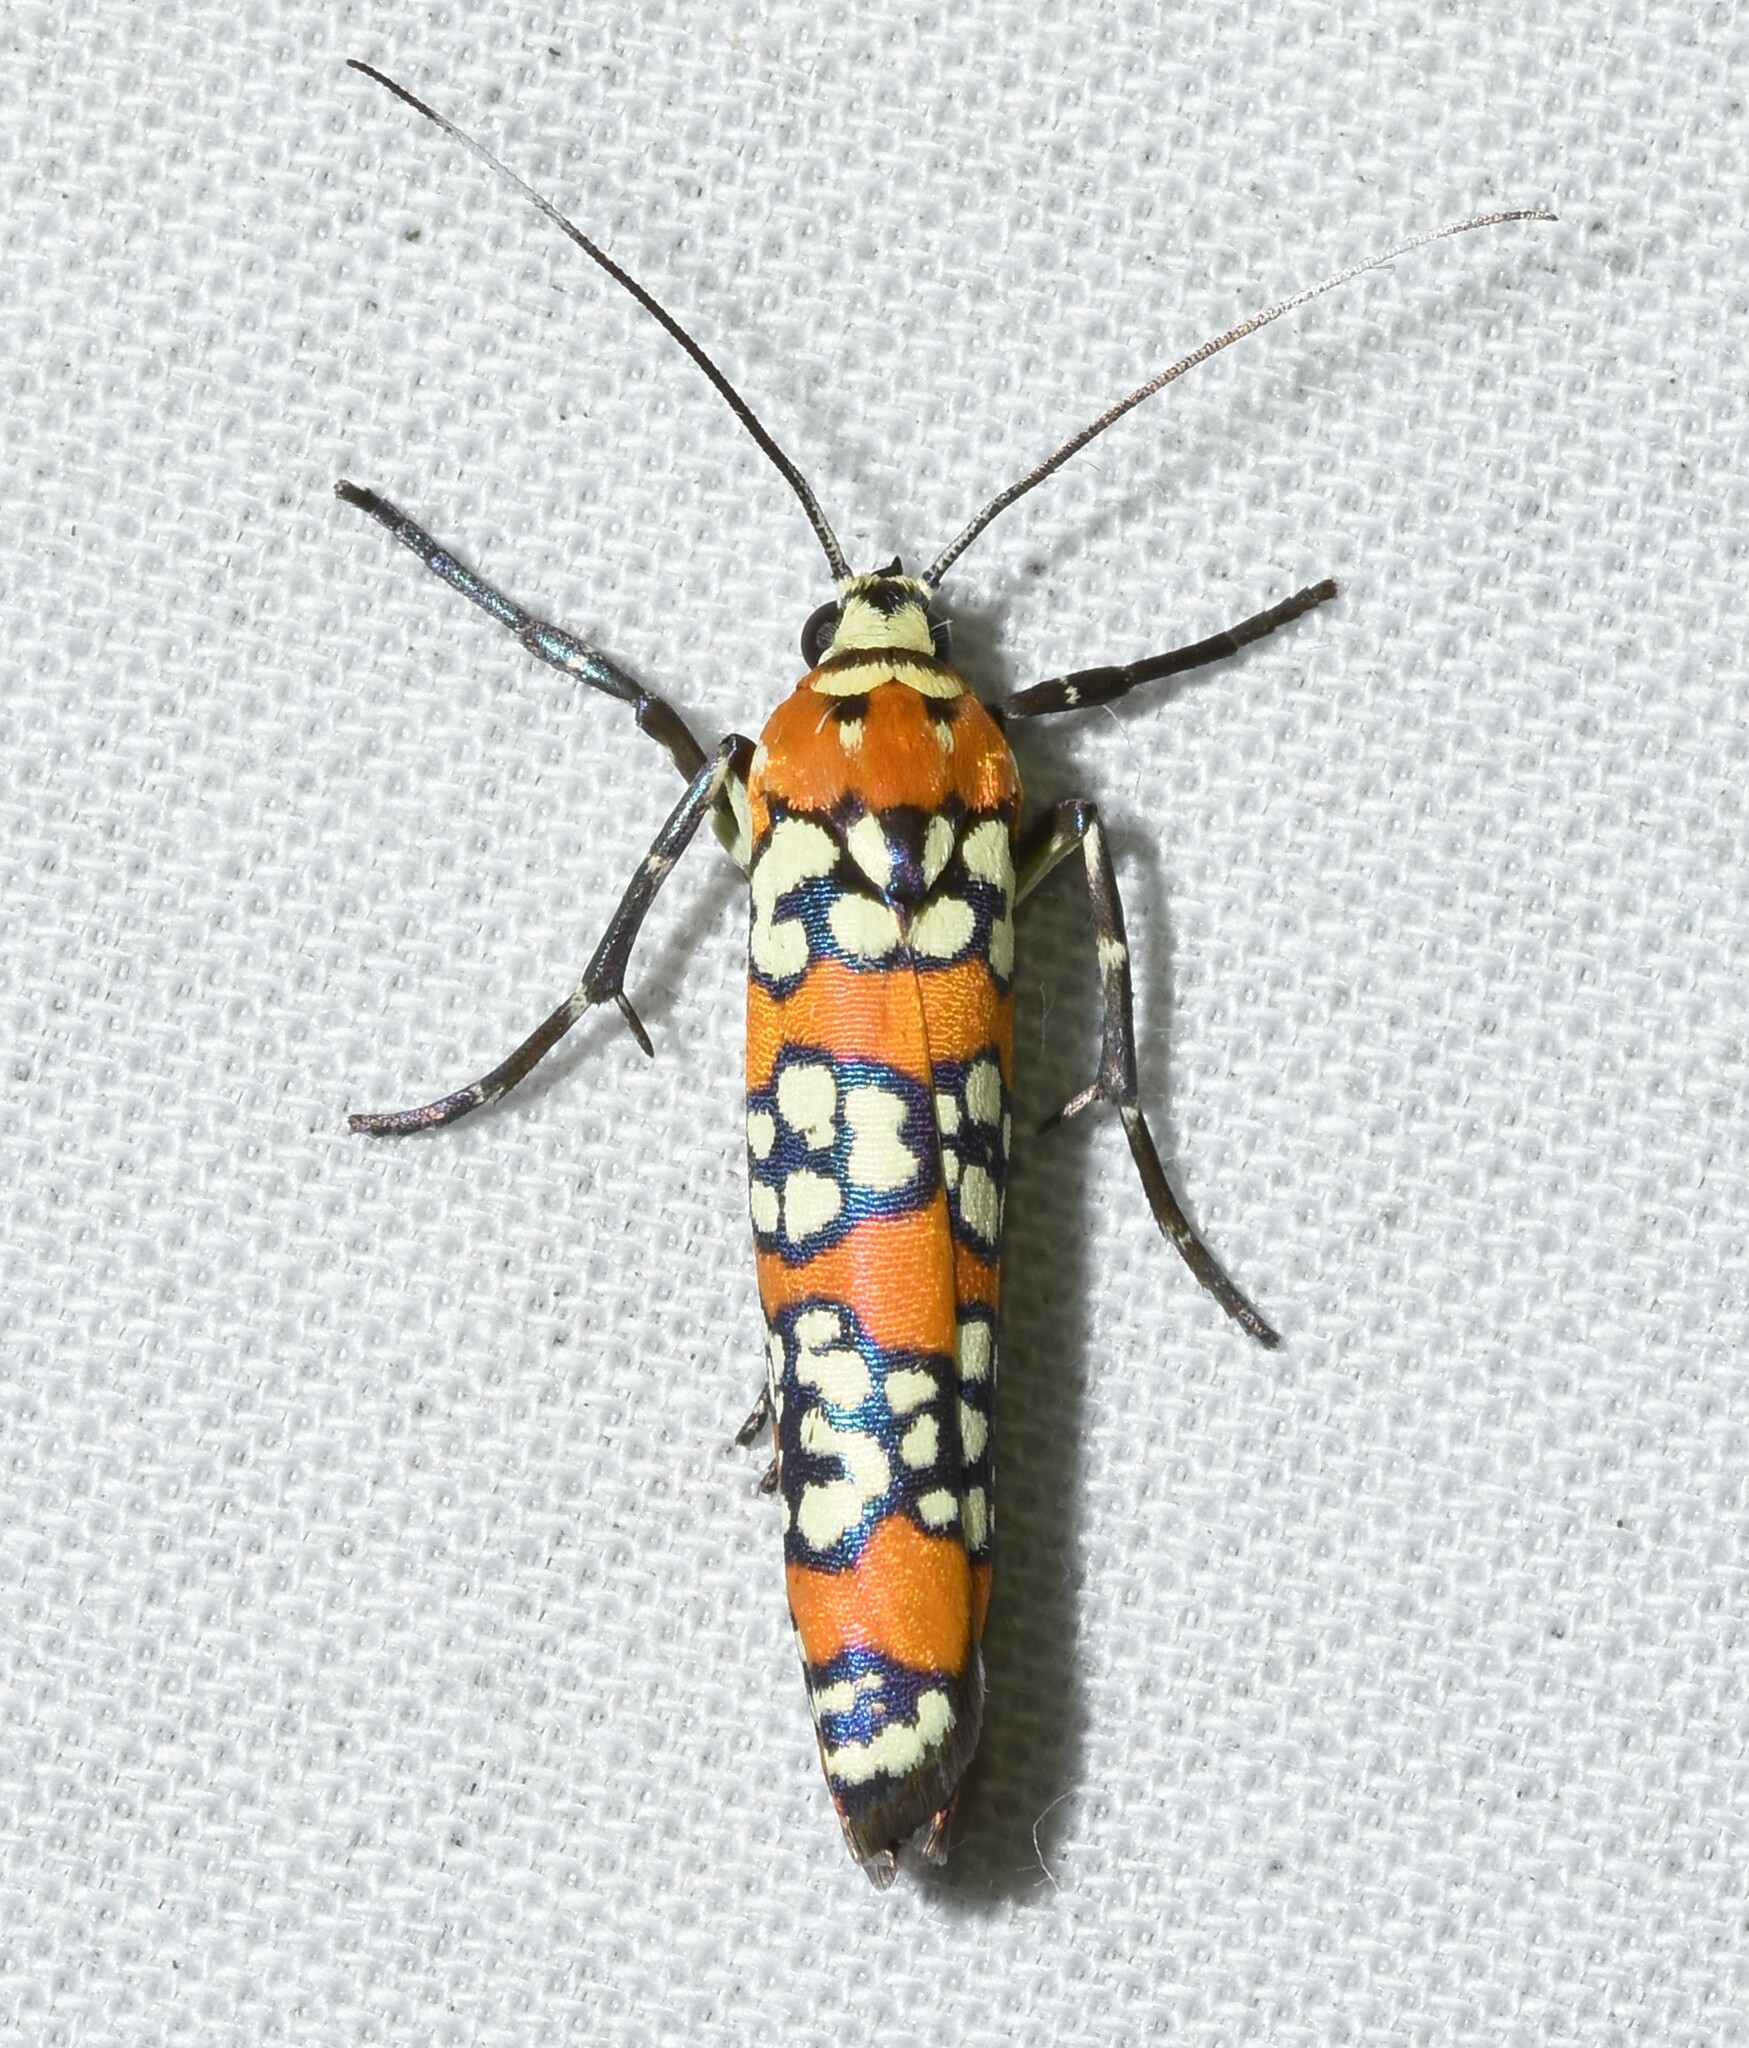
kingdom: Animalia
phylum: Arthropoda
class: Insecta
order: Lepidoptera
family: Attevidae
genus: Atteva
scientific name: Atteva punctella
